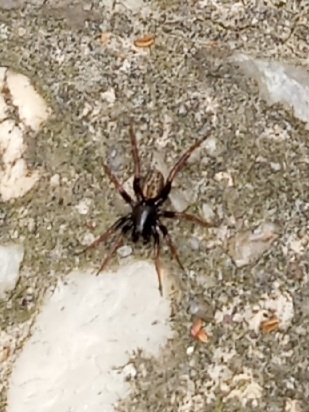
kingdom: Animalia
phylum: Arthropoda
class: Arachnida
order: Araneae
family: Lycosidae
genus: Allocosa
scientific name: Allocosa funerea
